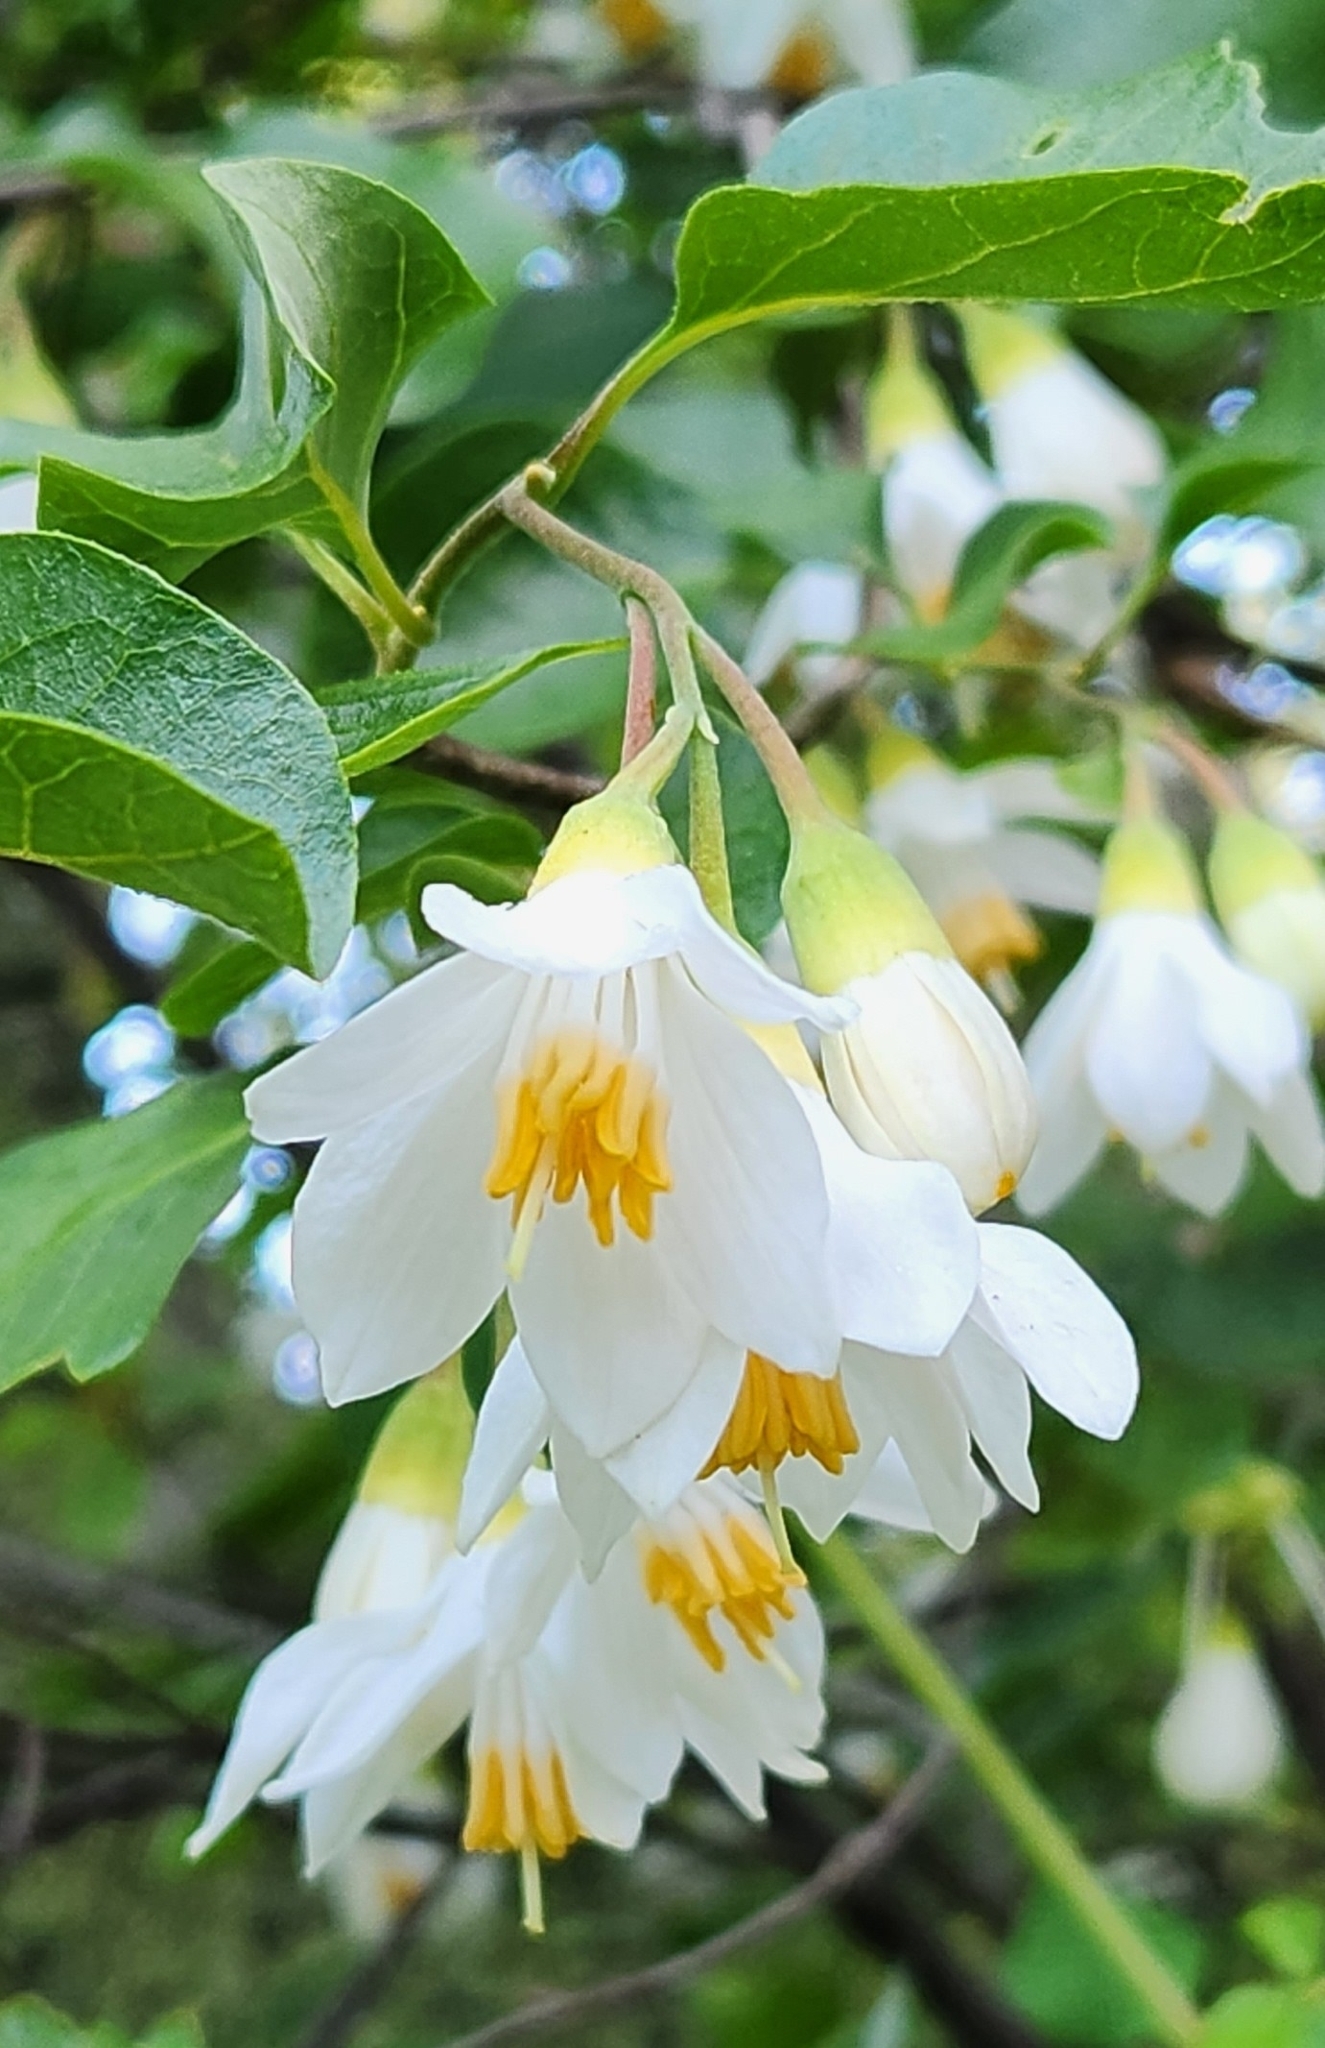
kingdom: Plantae
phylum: Tracheophyta
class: Magnoliopsida
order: Ericales
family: Styracaceae
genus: Styrax
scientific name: Styrax redivivus
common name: California styrax
